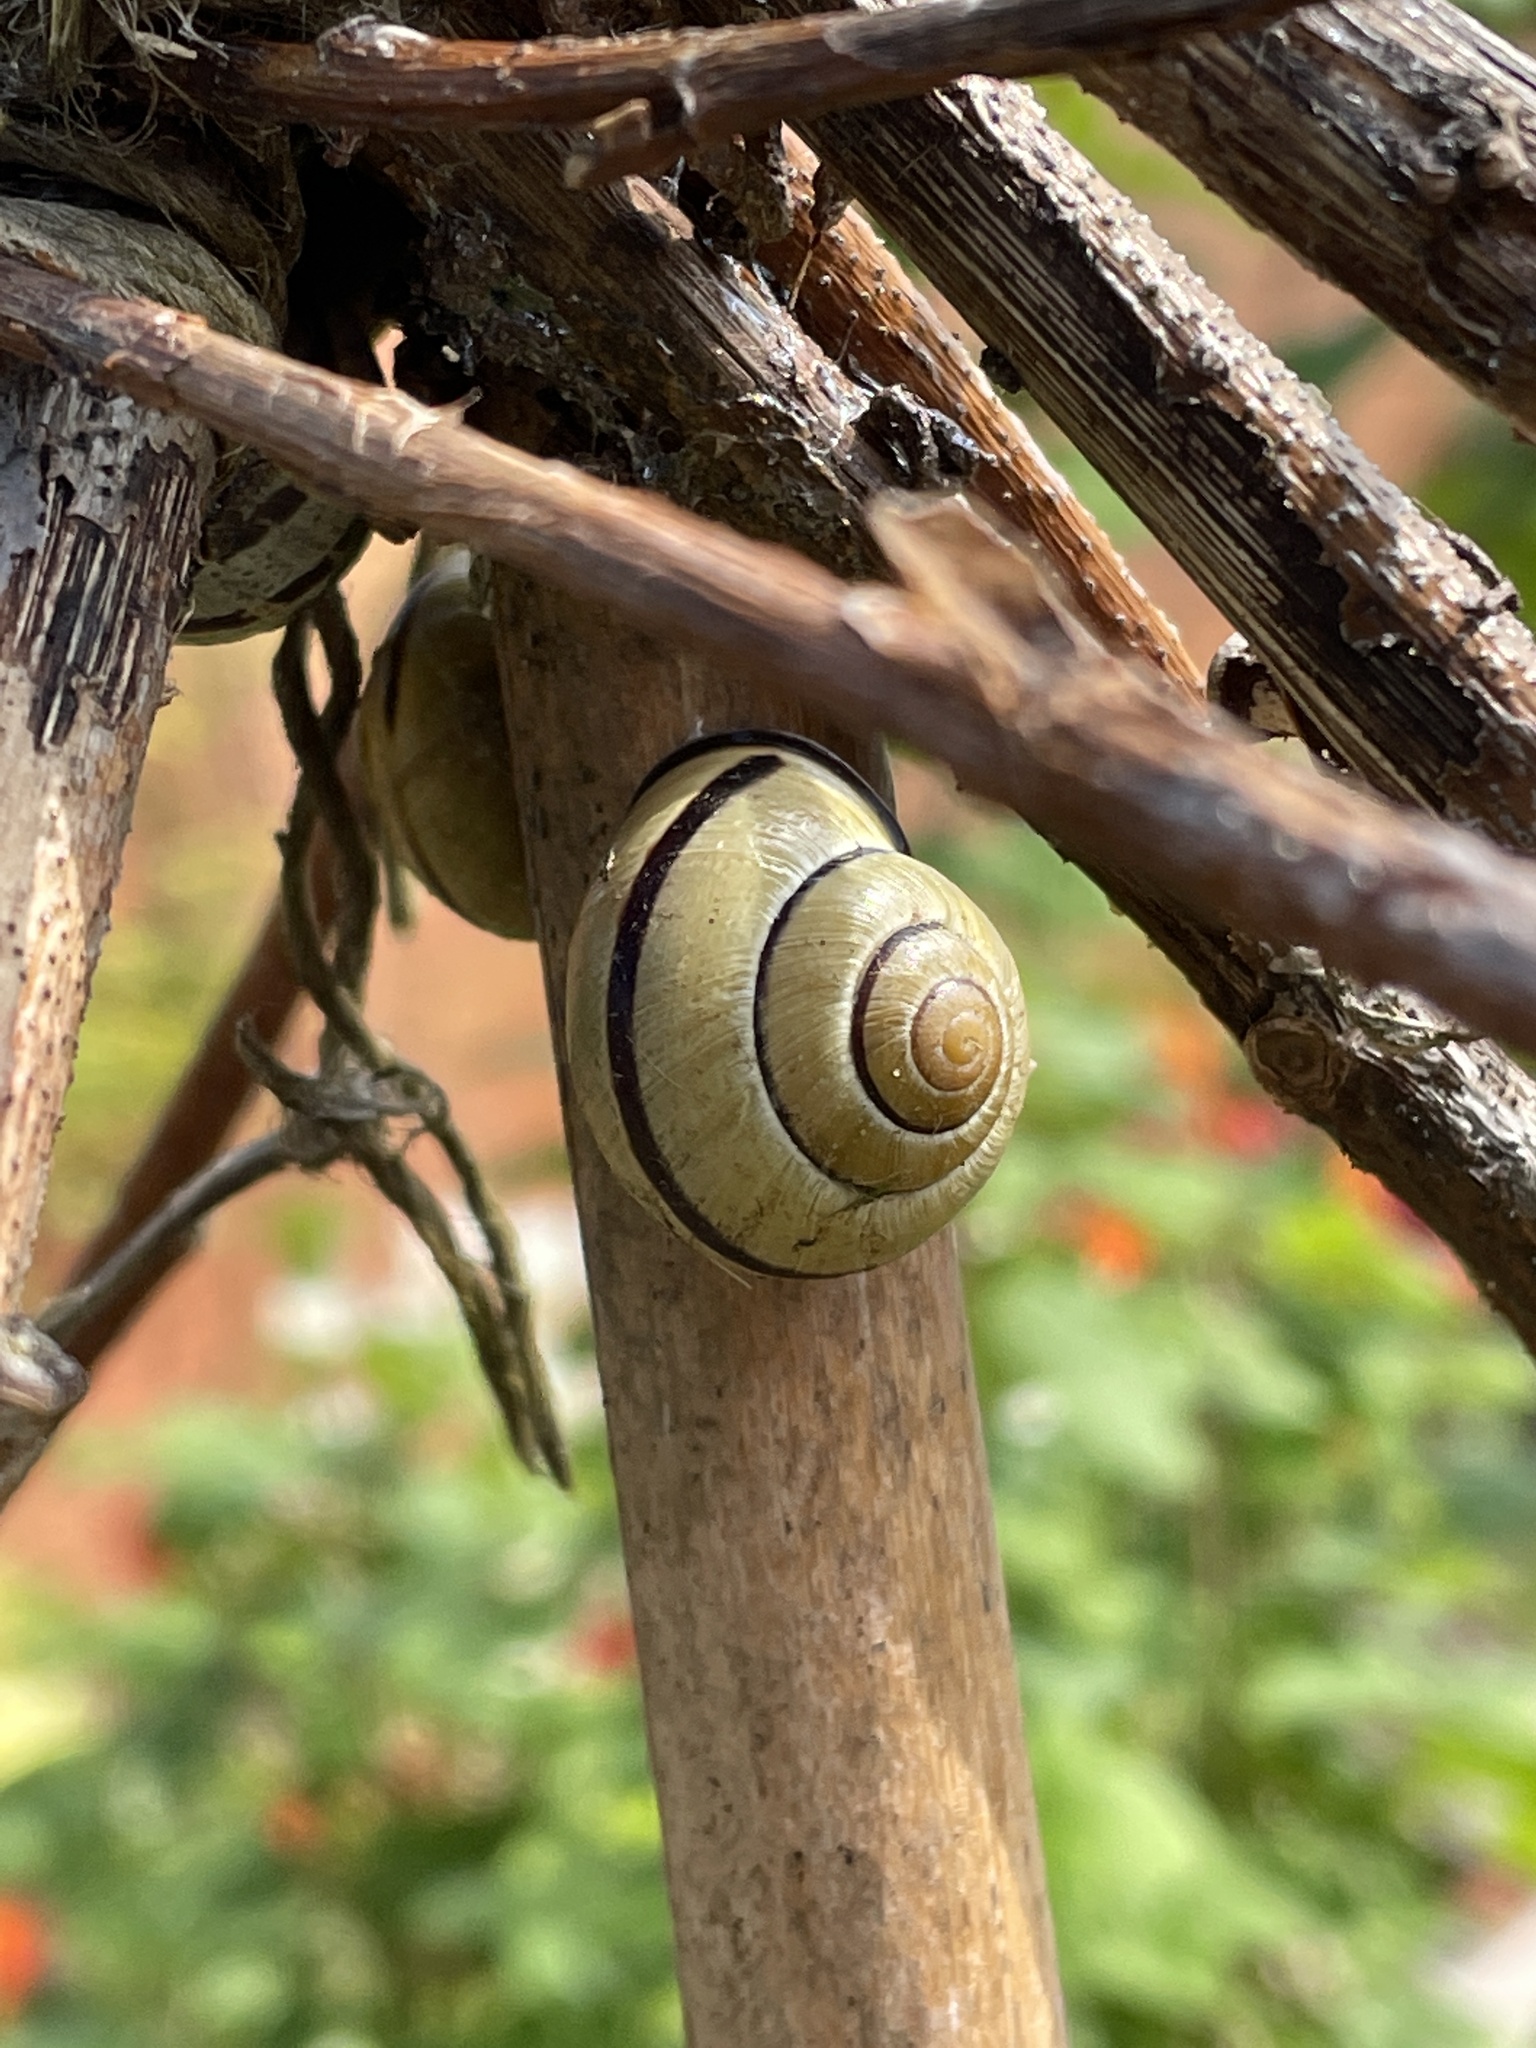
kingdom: Animalia
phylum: Mollusca
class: Gastropoda
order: Stylommatophora
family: Helicidae
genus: Cepaea
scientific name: Cepaea nemoralis
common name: Grovesnail
